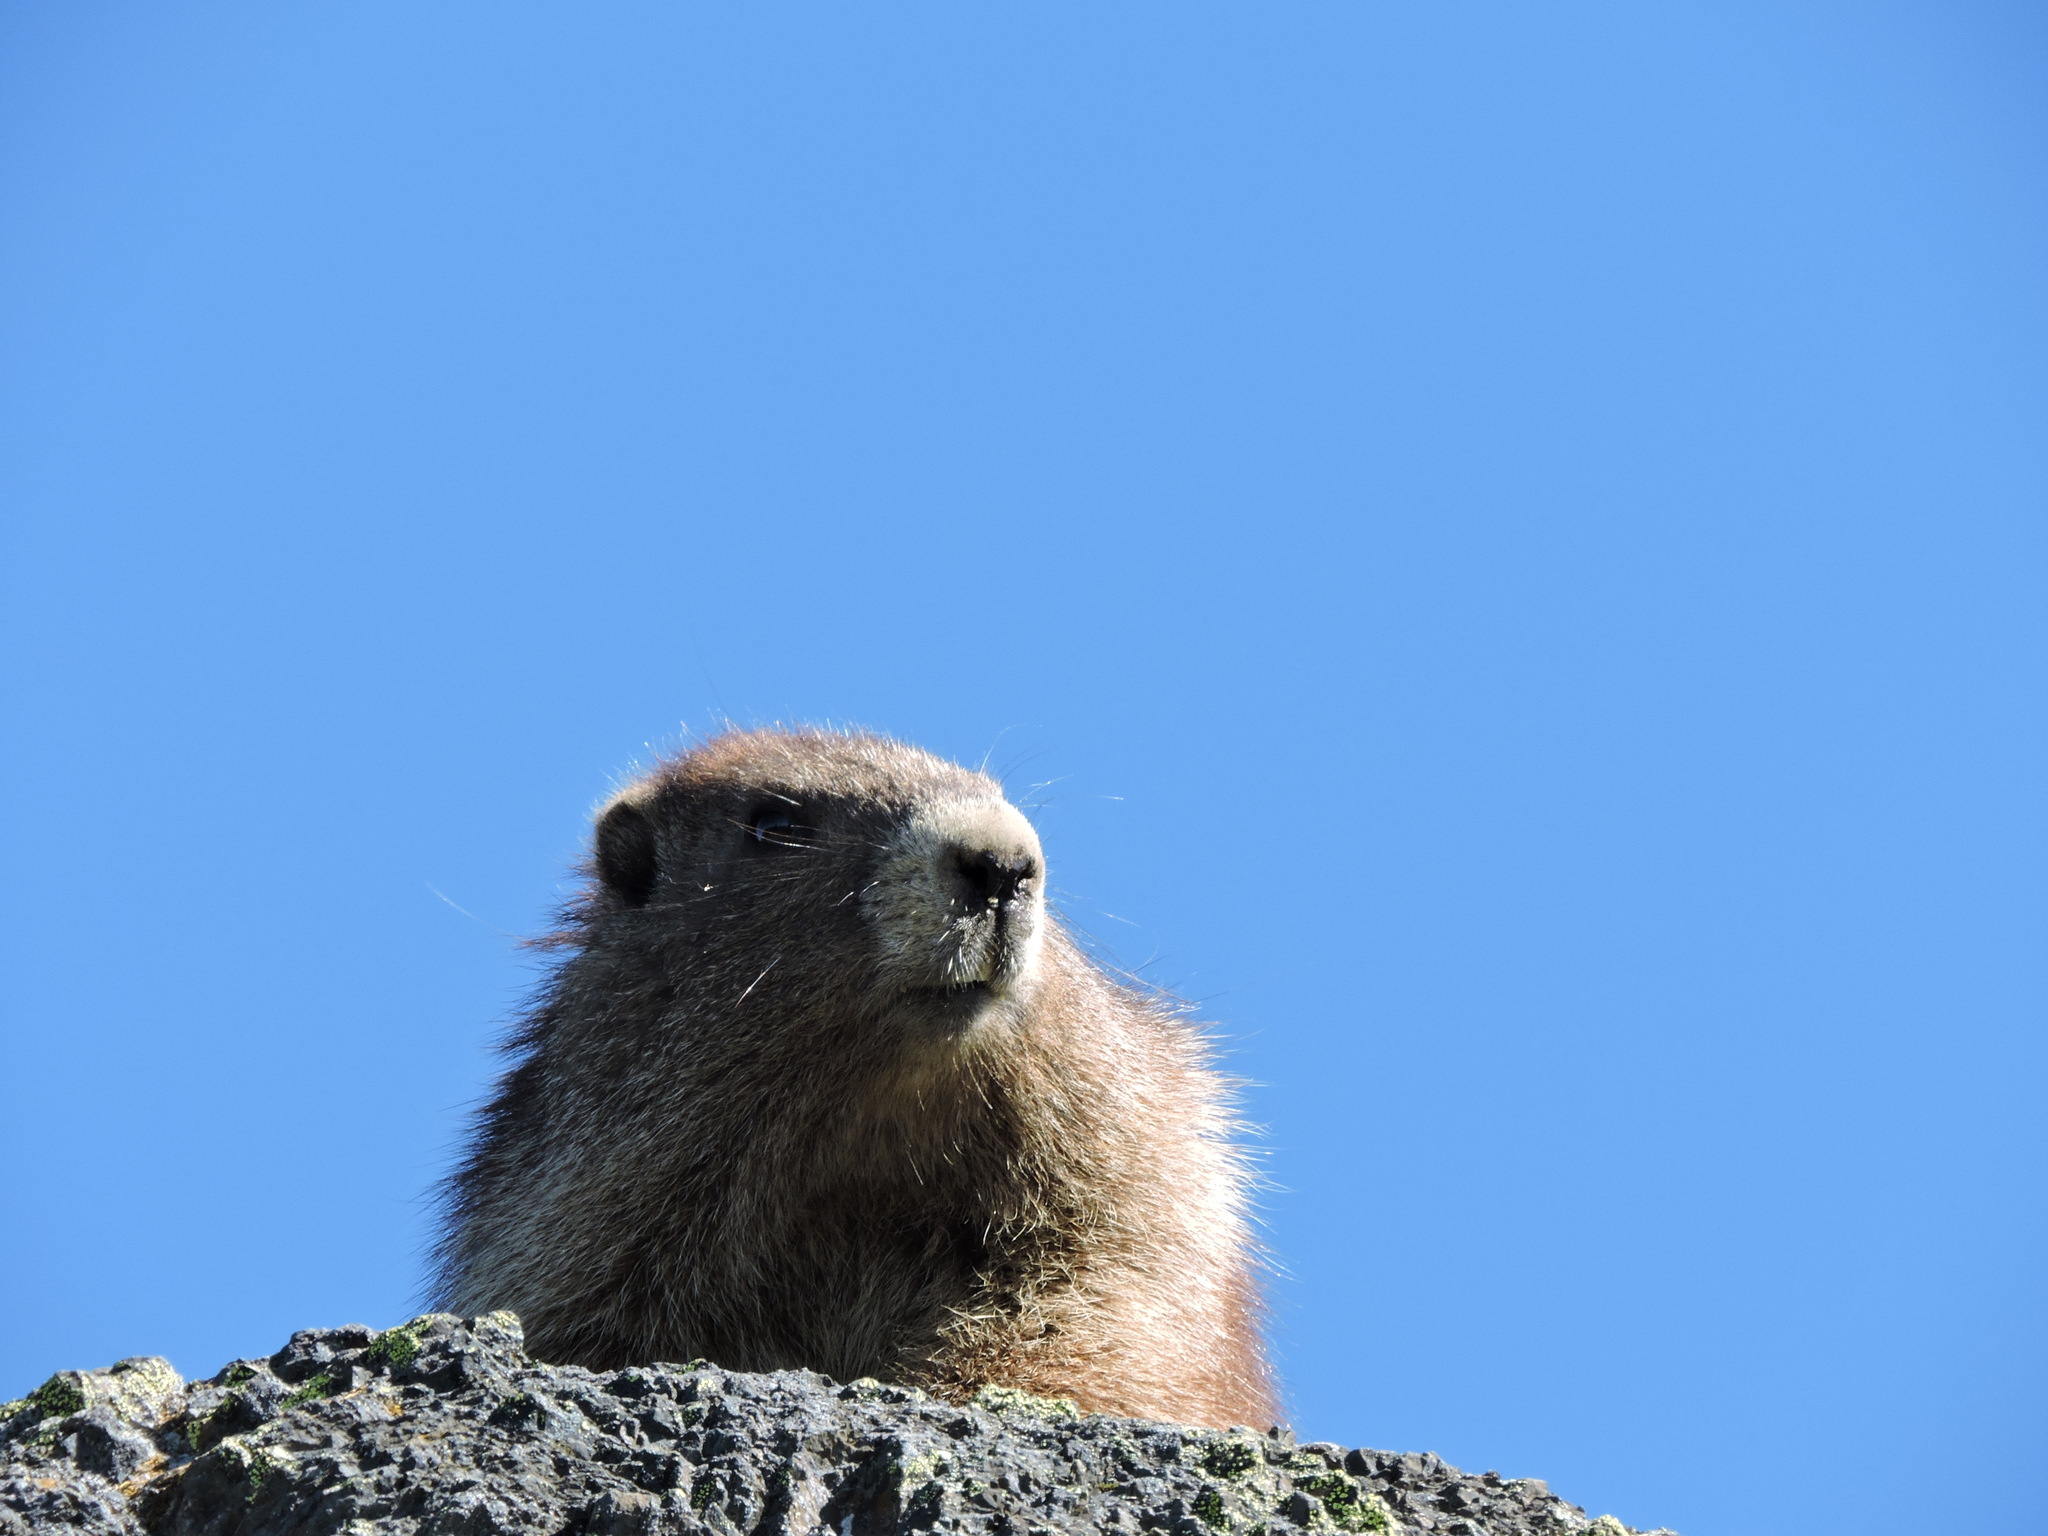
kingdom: Animalia
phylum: Chordata
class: Mammalia
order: Rodentia
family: Sciuridae
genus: Marmota
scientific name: Marmota olympus
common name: Olympic marmot
